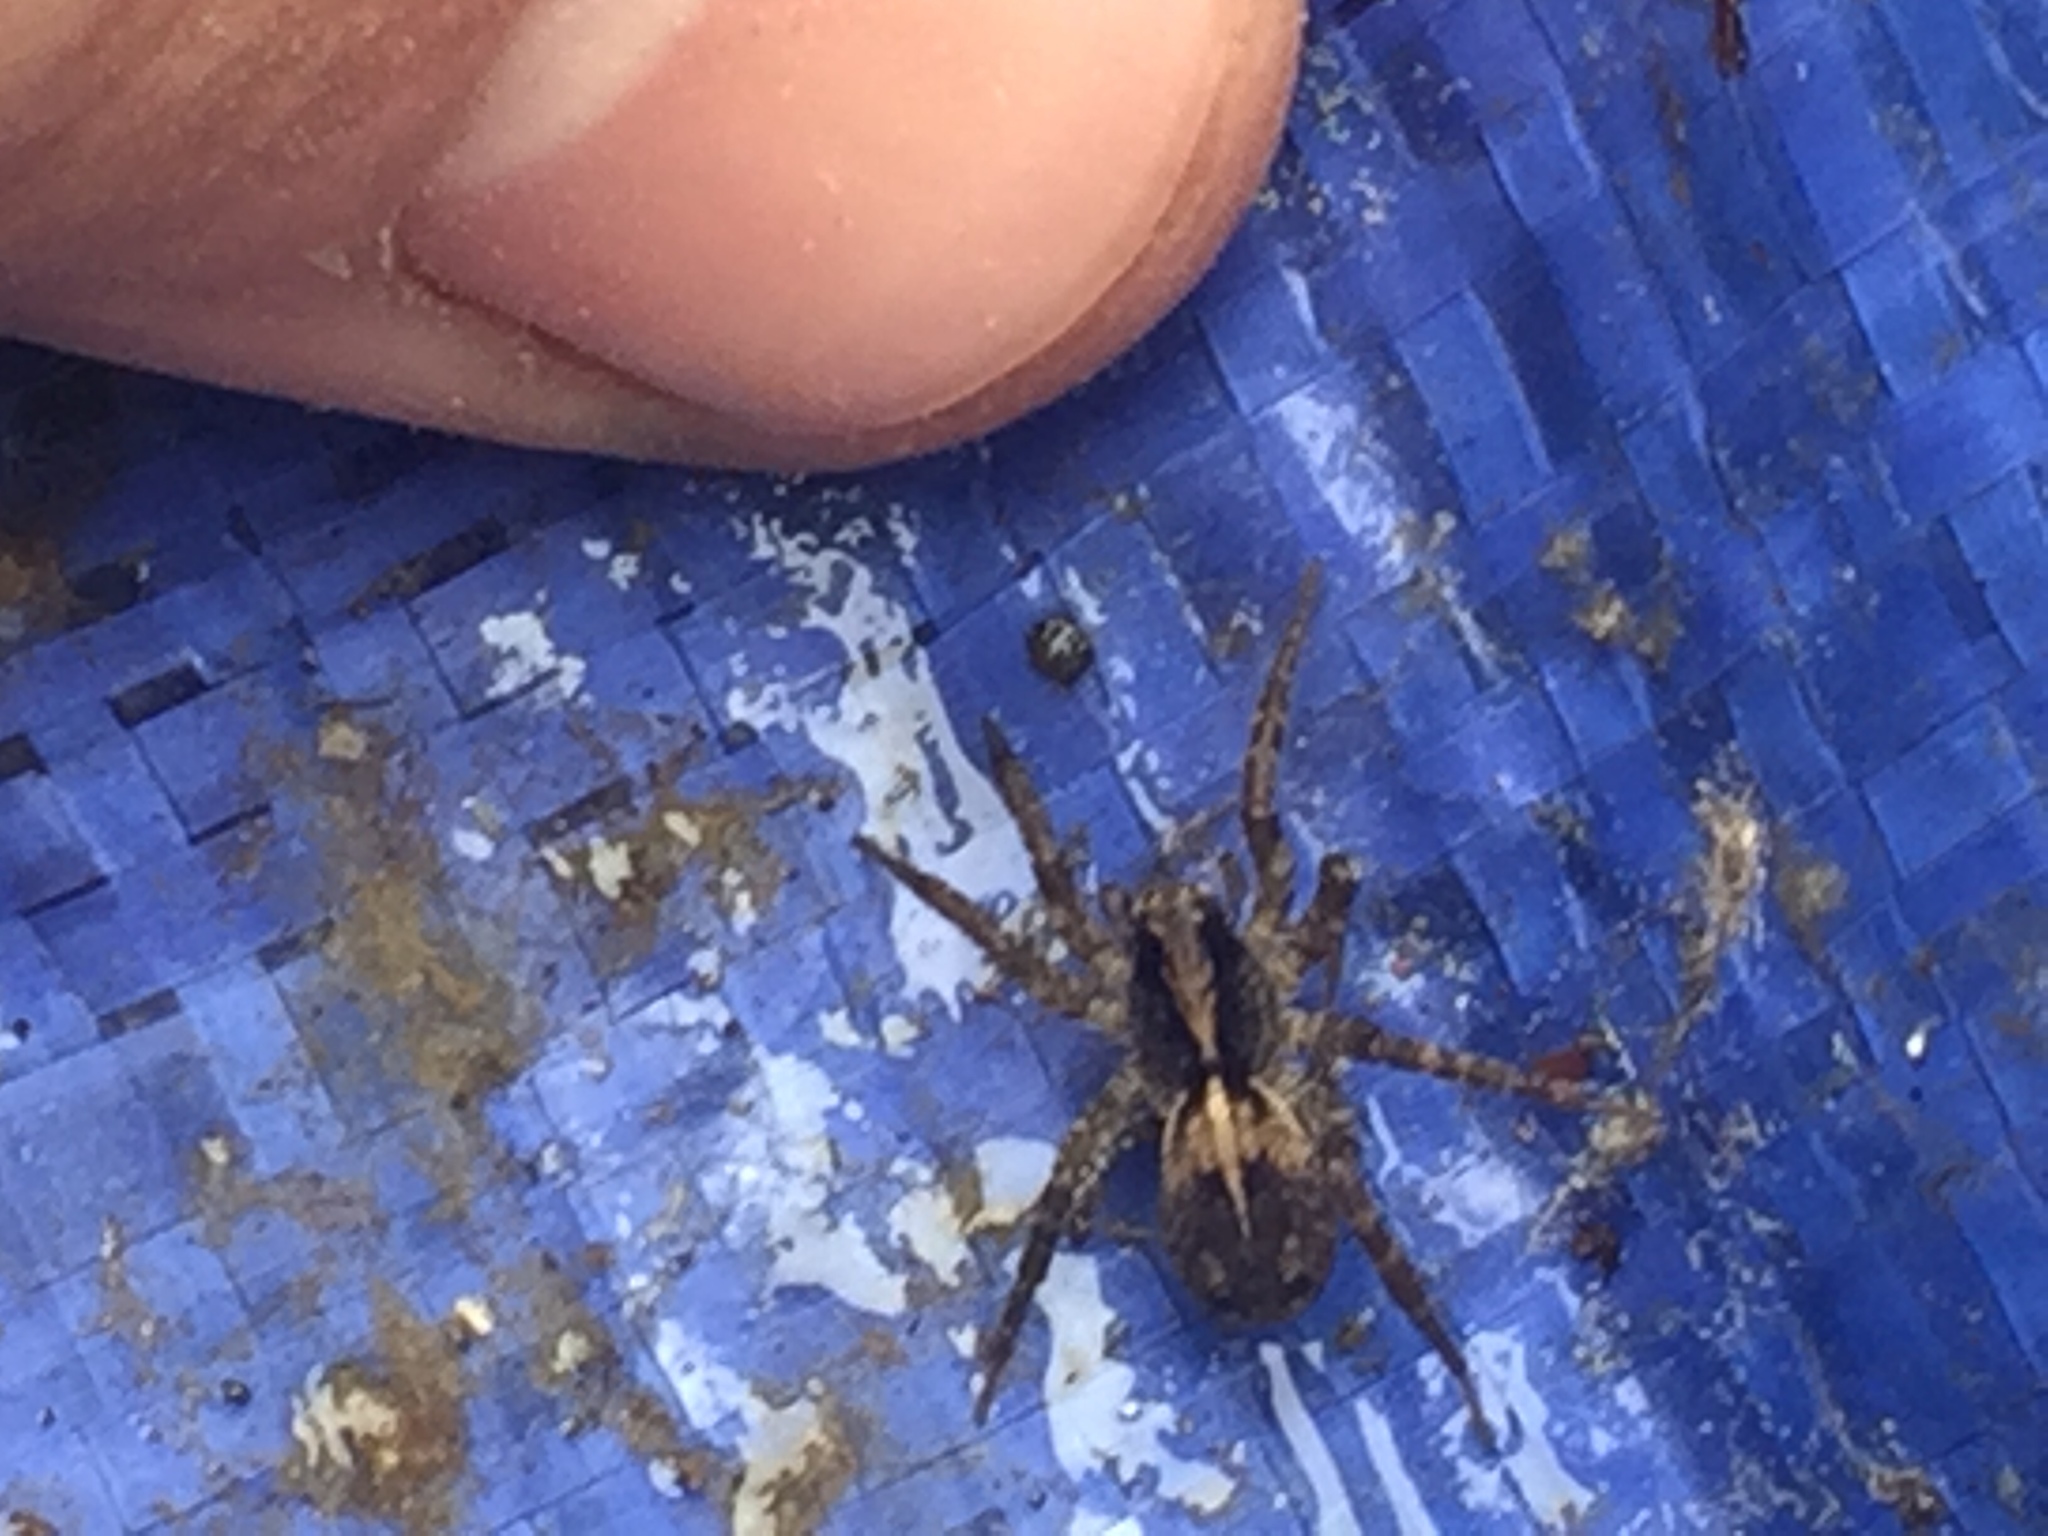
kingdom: Animalia
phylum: Arthropoda
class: Arachnida
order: Araneae
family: Lycosidae
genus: Anoteropsis
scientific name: Anoteropsis hilaris
